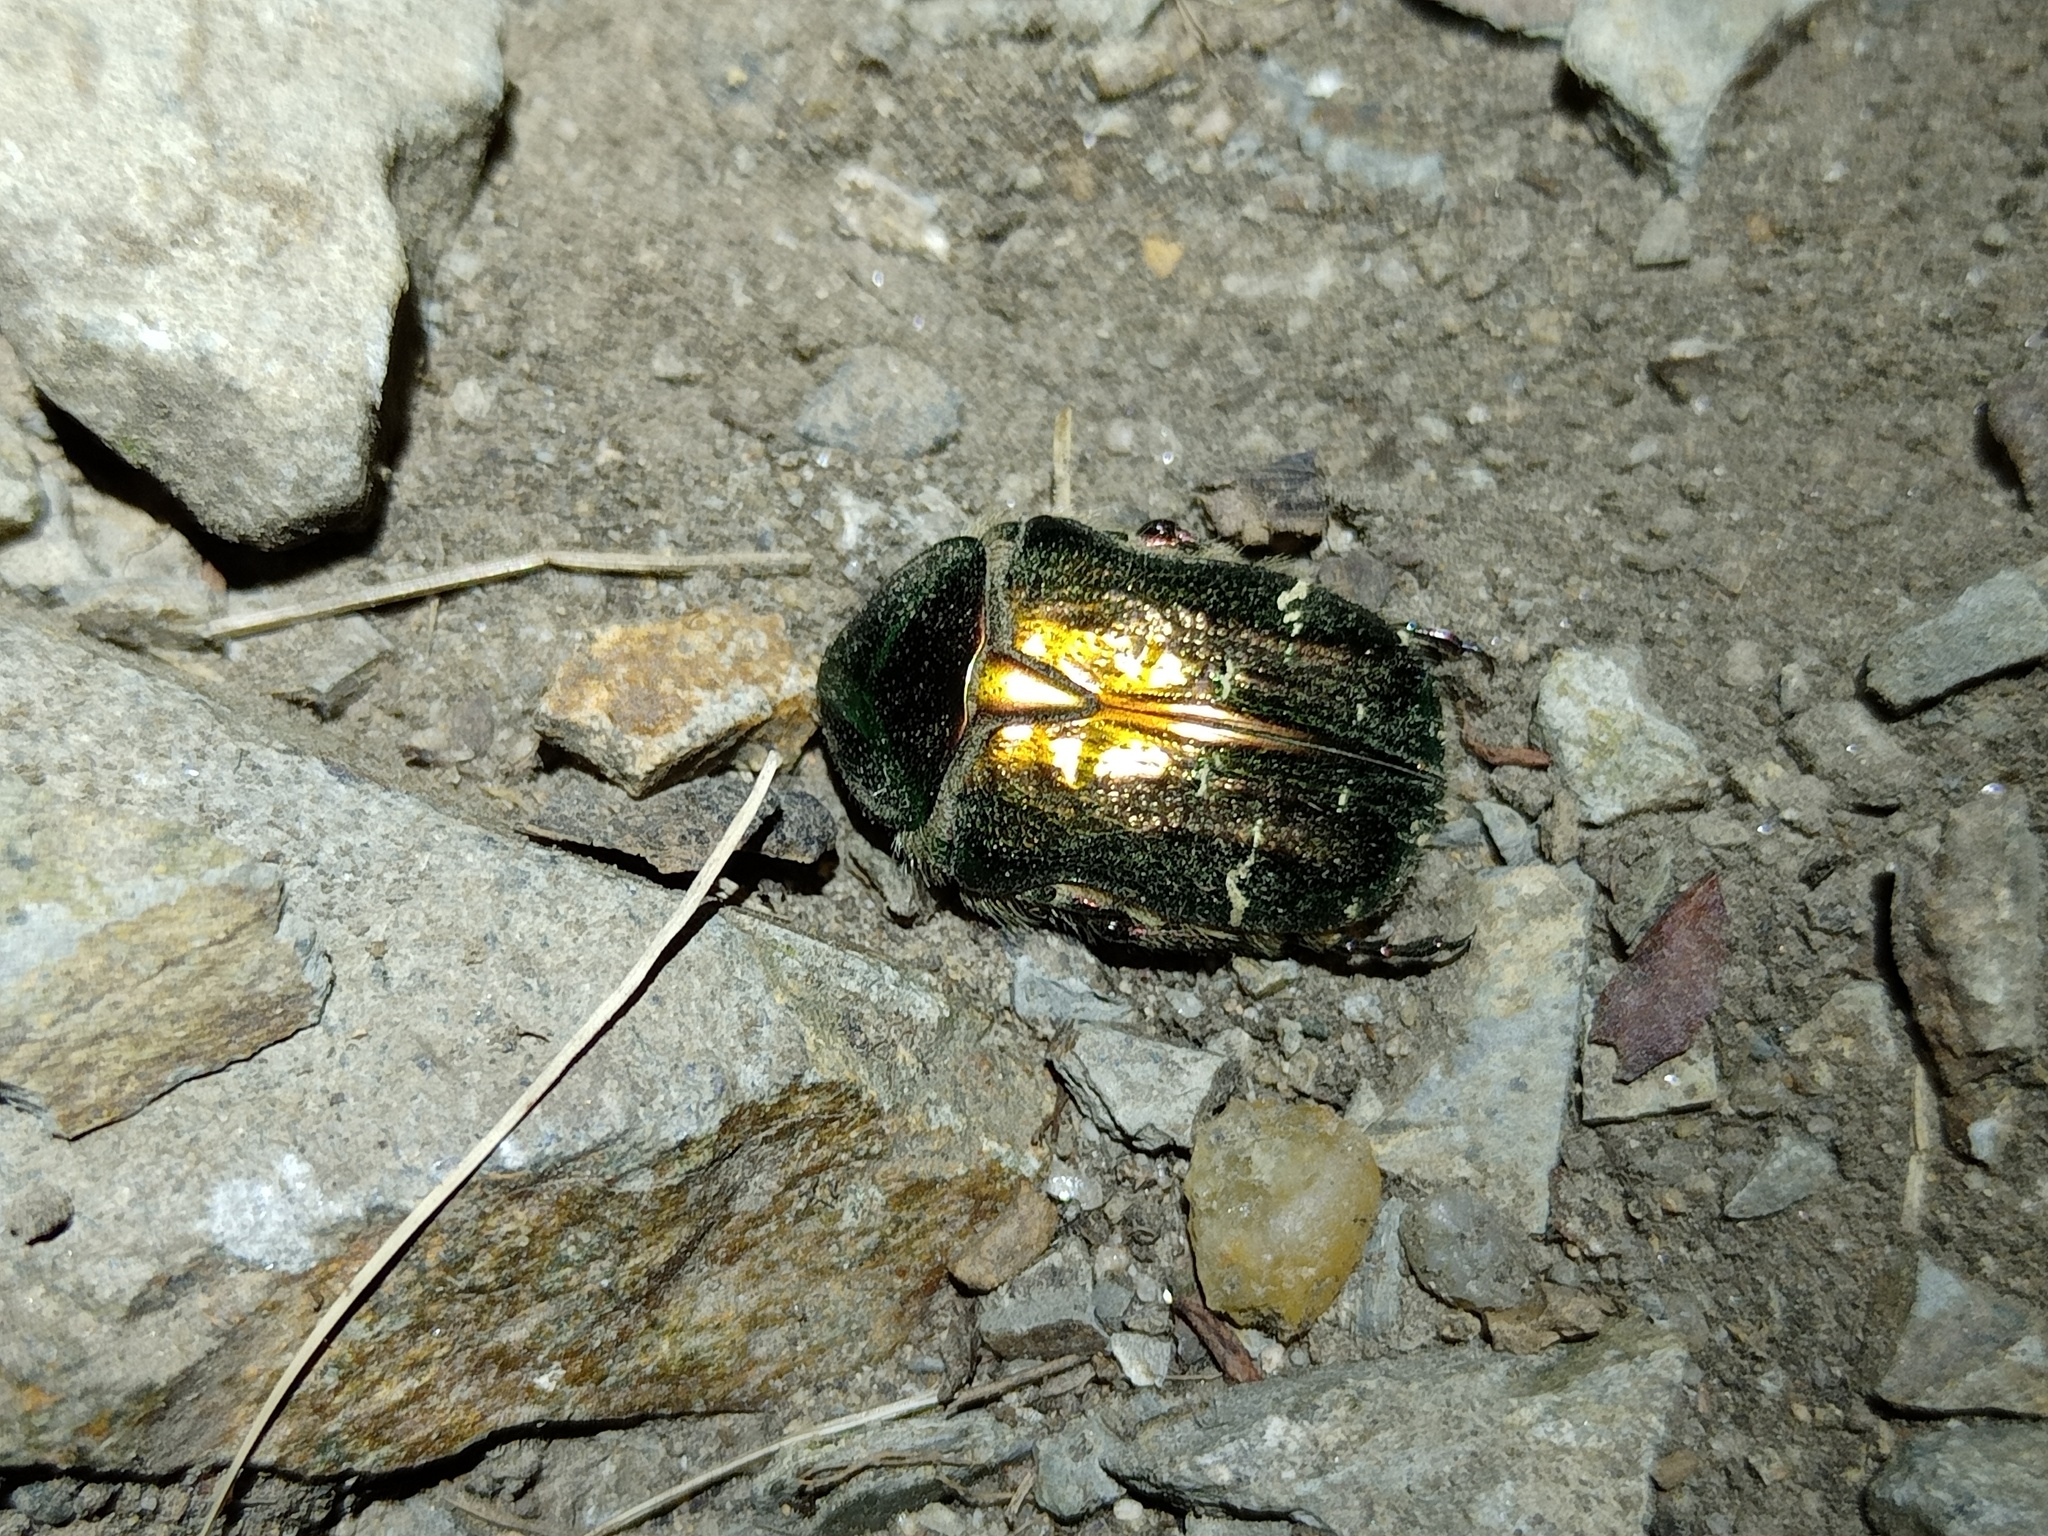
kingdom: Animalia
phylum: Arthropoda
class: Insecta
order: Coleoptera
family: Scarabaeidae
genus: Cetonia
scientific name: Cetonia aurata
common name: Rose chafer
